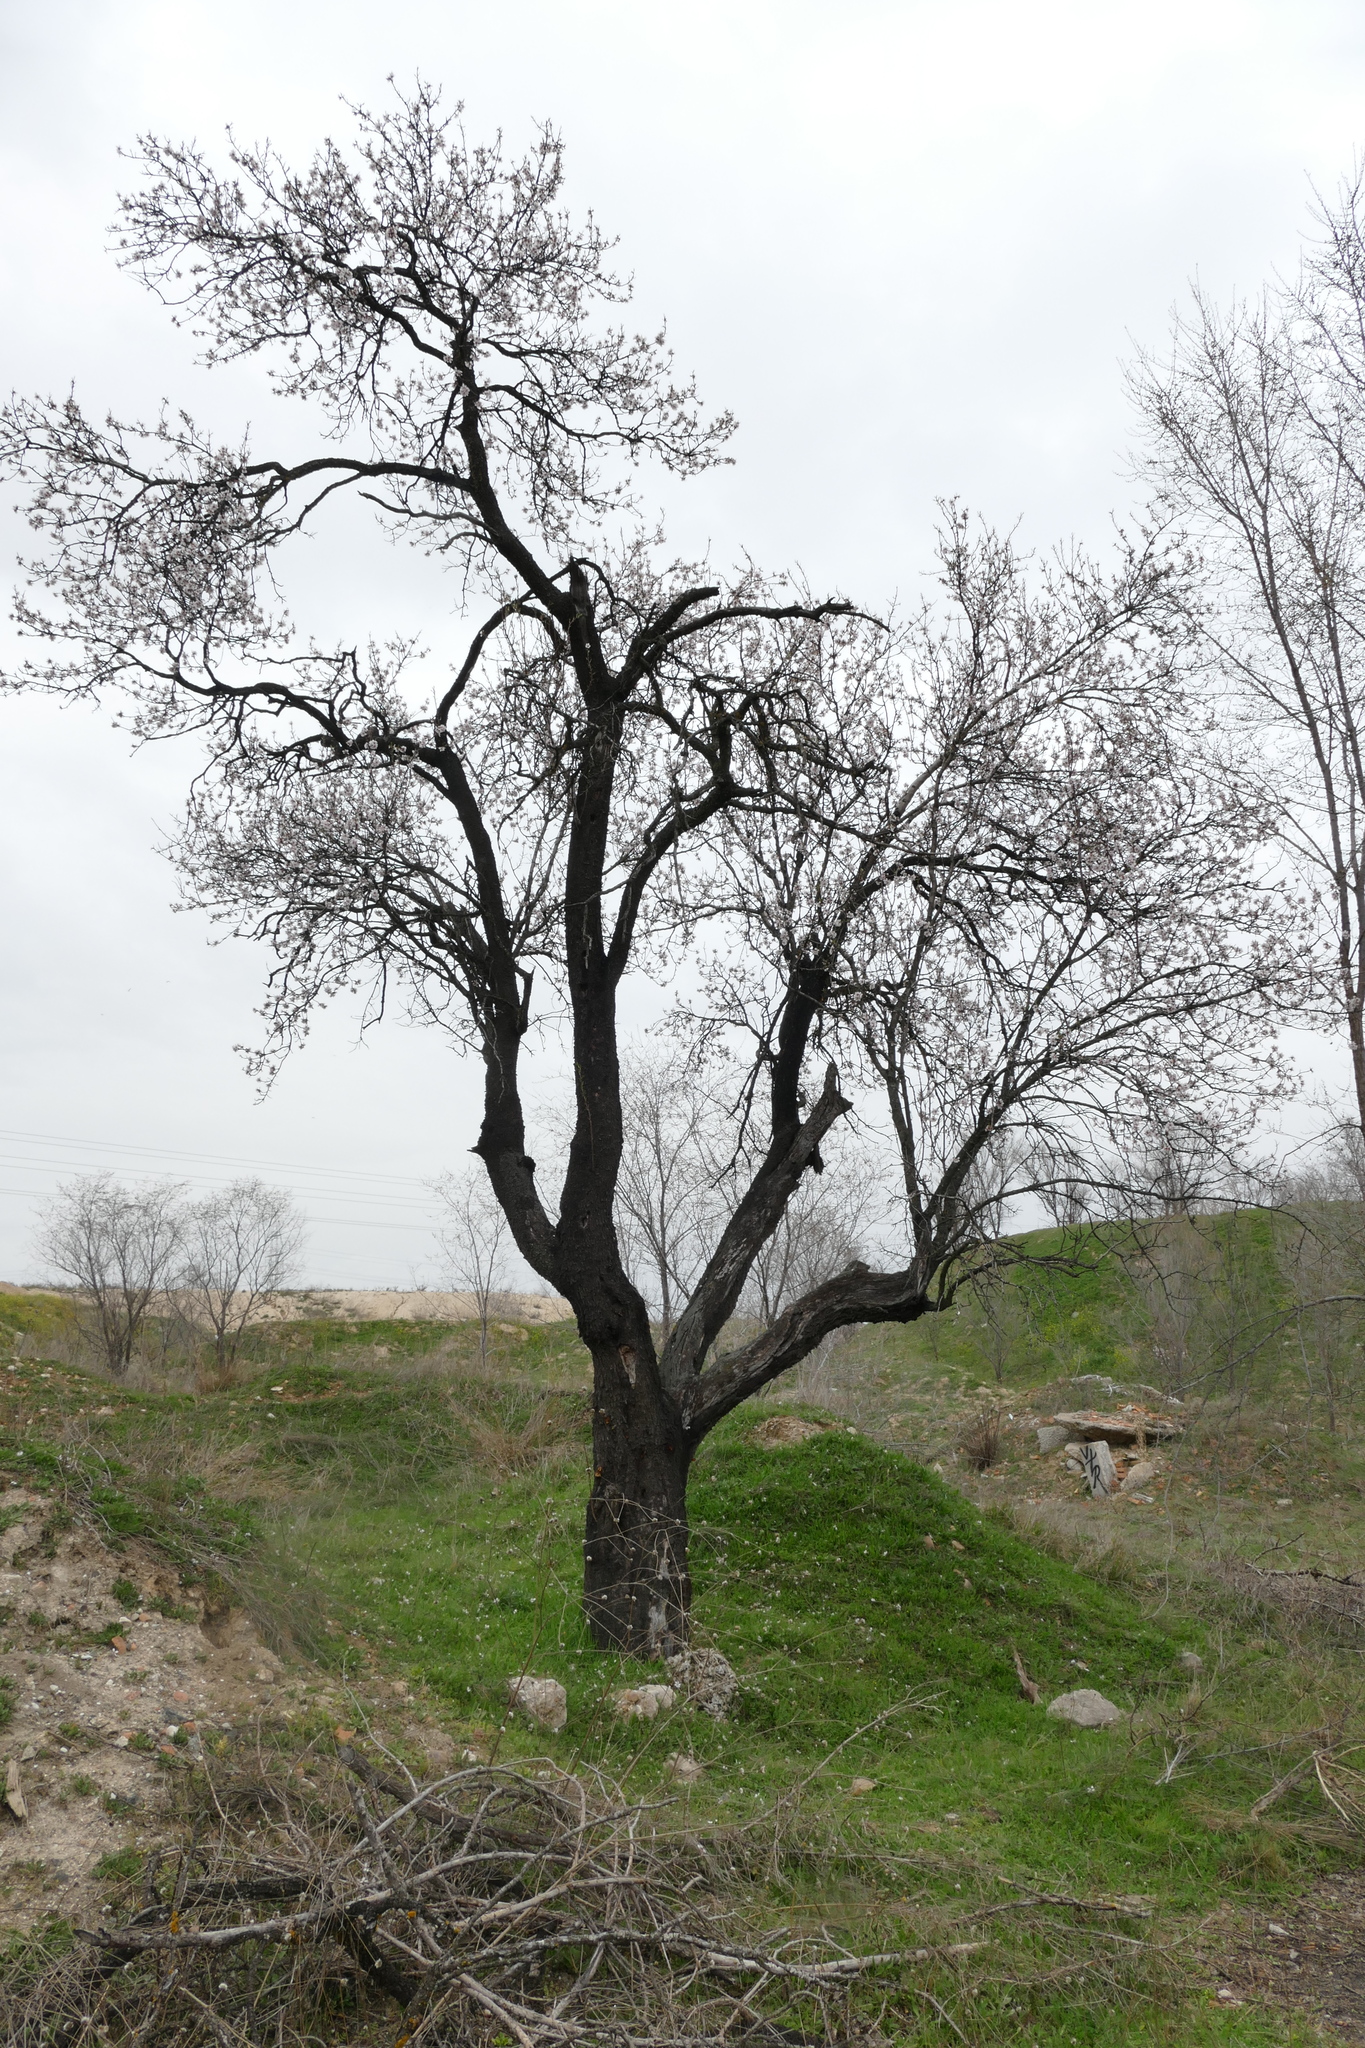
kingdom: Plantae
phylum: Tracheophyta
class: Magnoliopsida
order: Rosales
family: Rosaceae
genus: Prunus
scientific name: Prunus amygdalus
